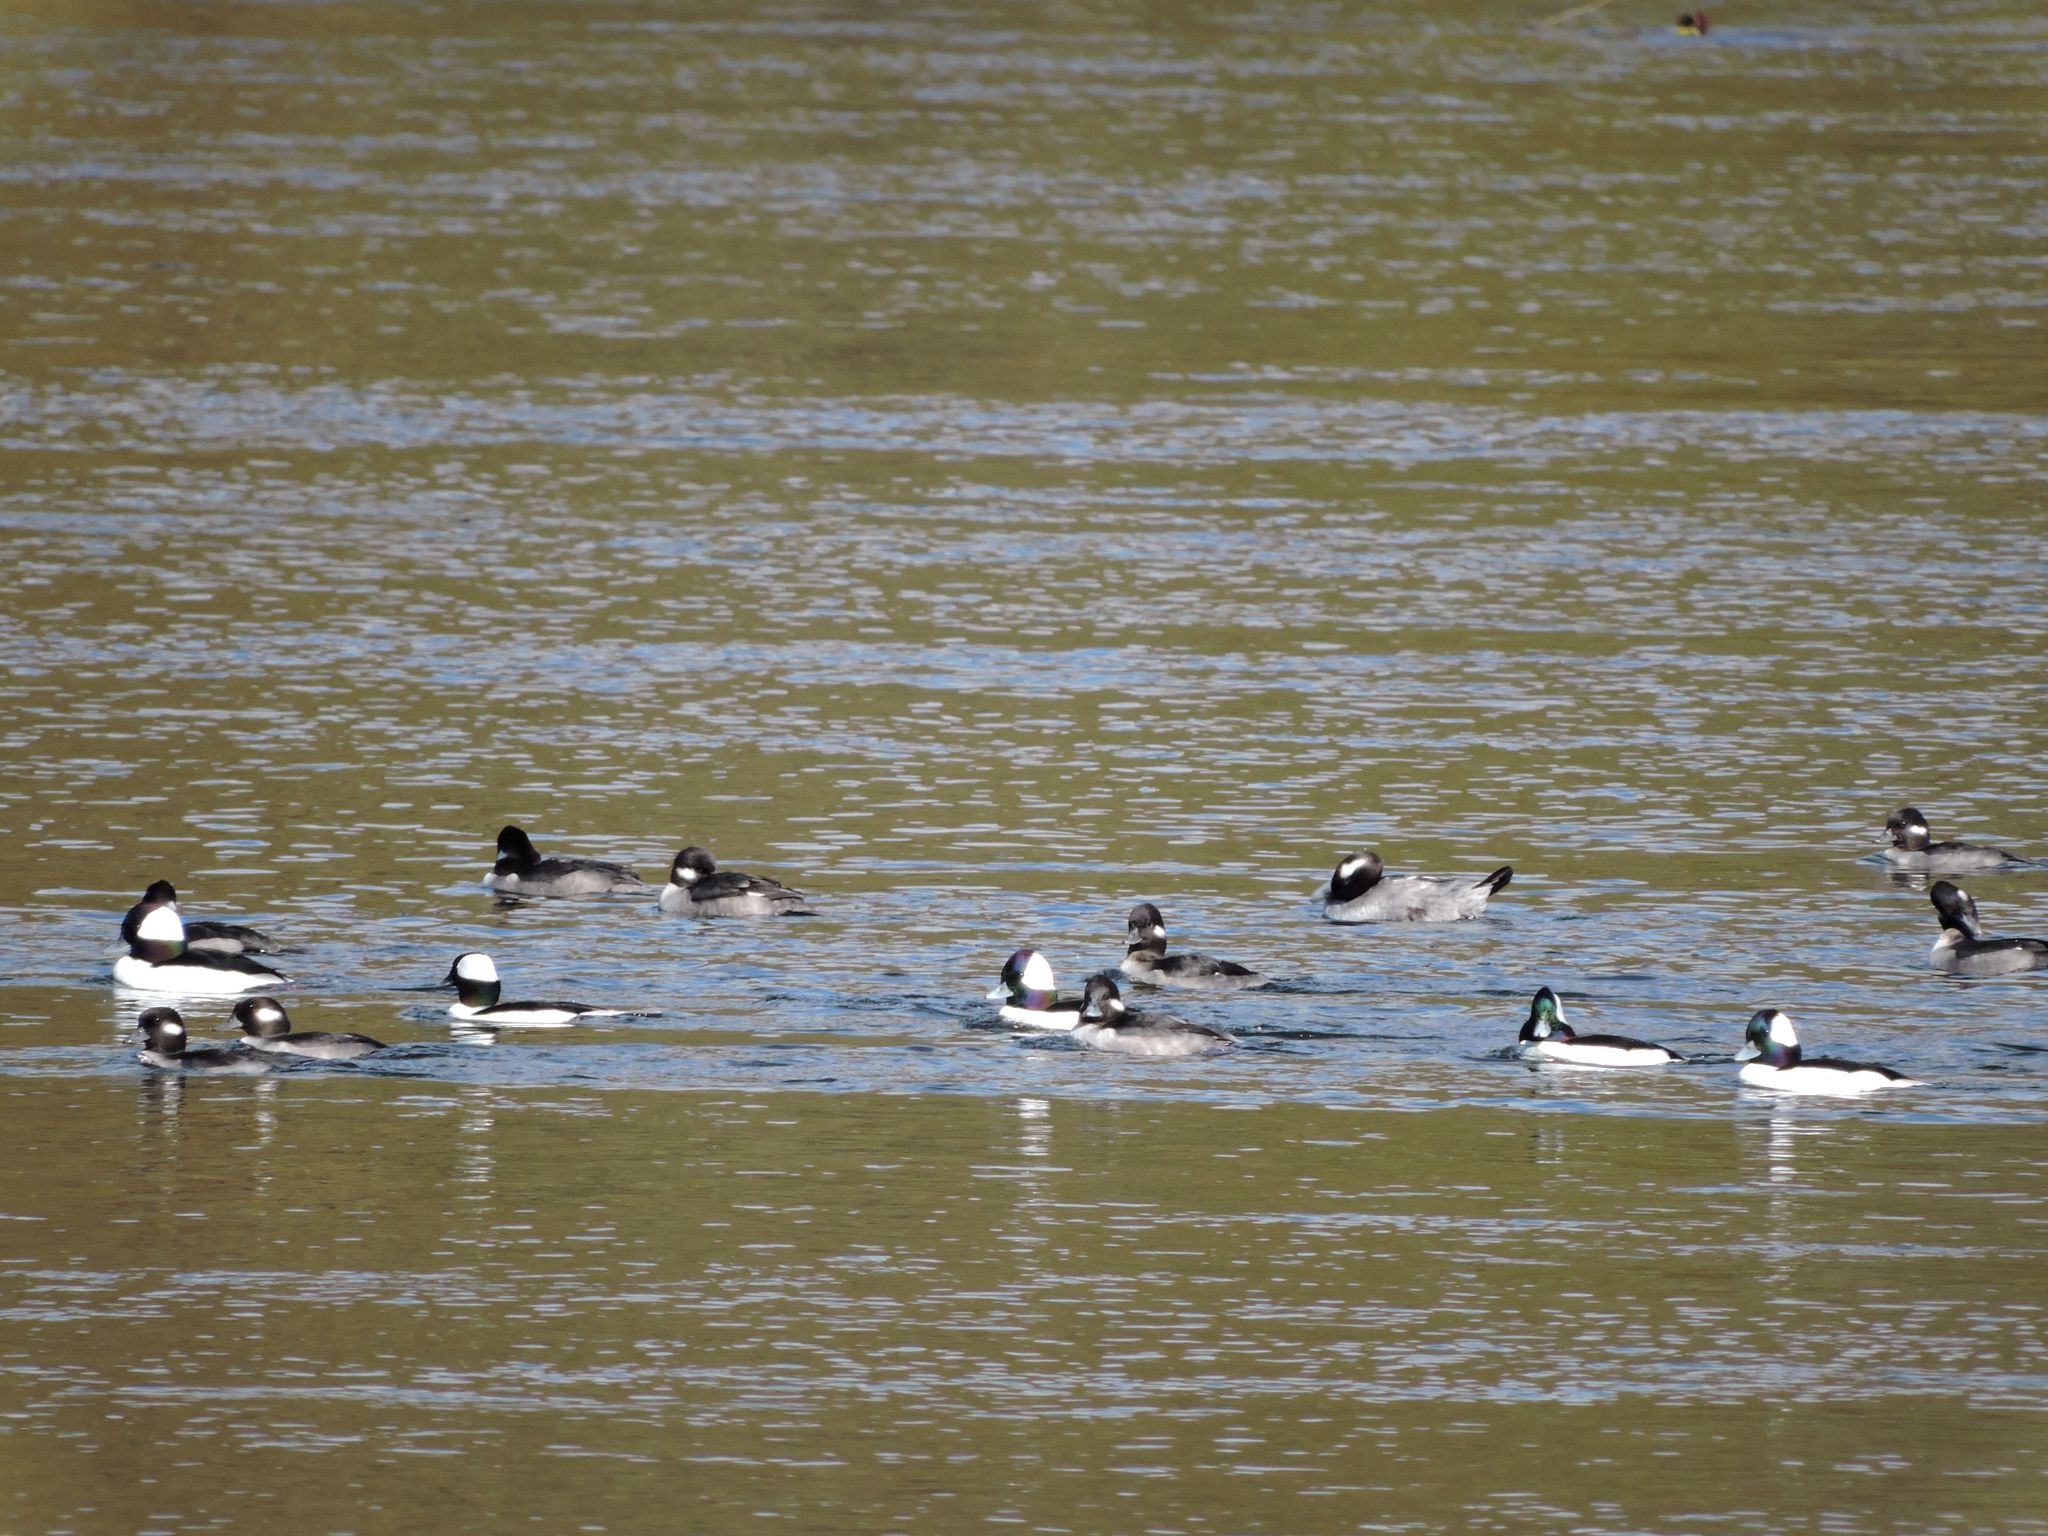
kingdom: Animalia
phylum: Chordata
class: Aves
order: Anseriformes
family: Anatidae
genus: Bucephala
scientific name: Bucephala albeola
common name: Bufflehead
